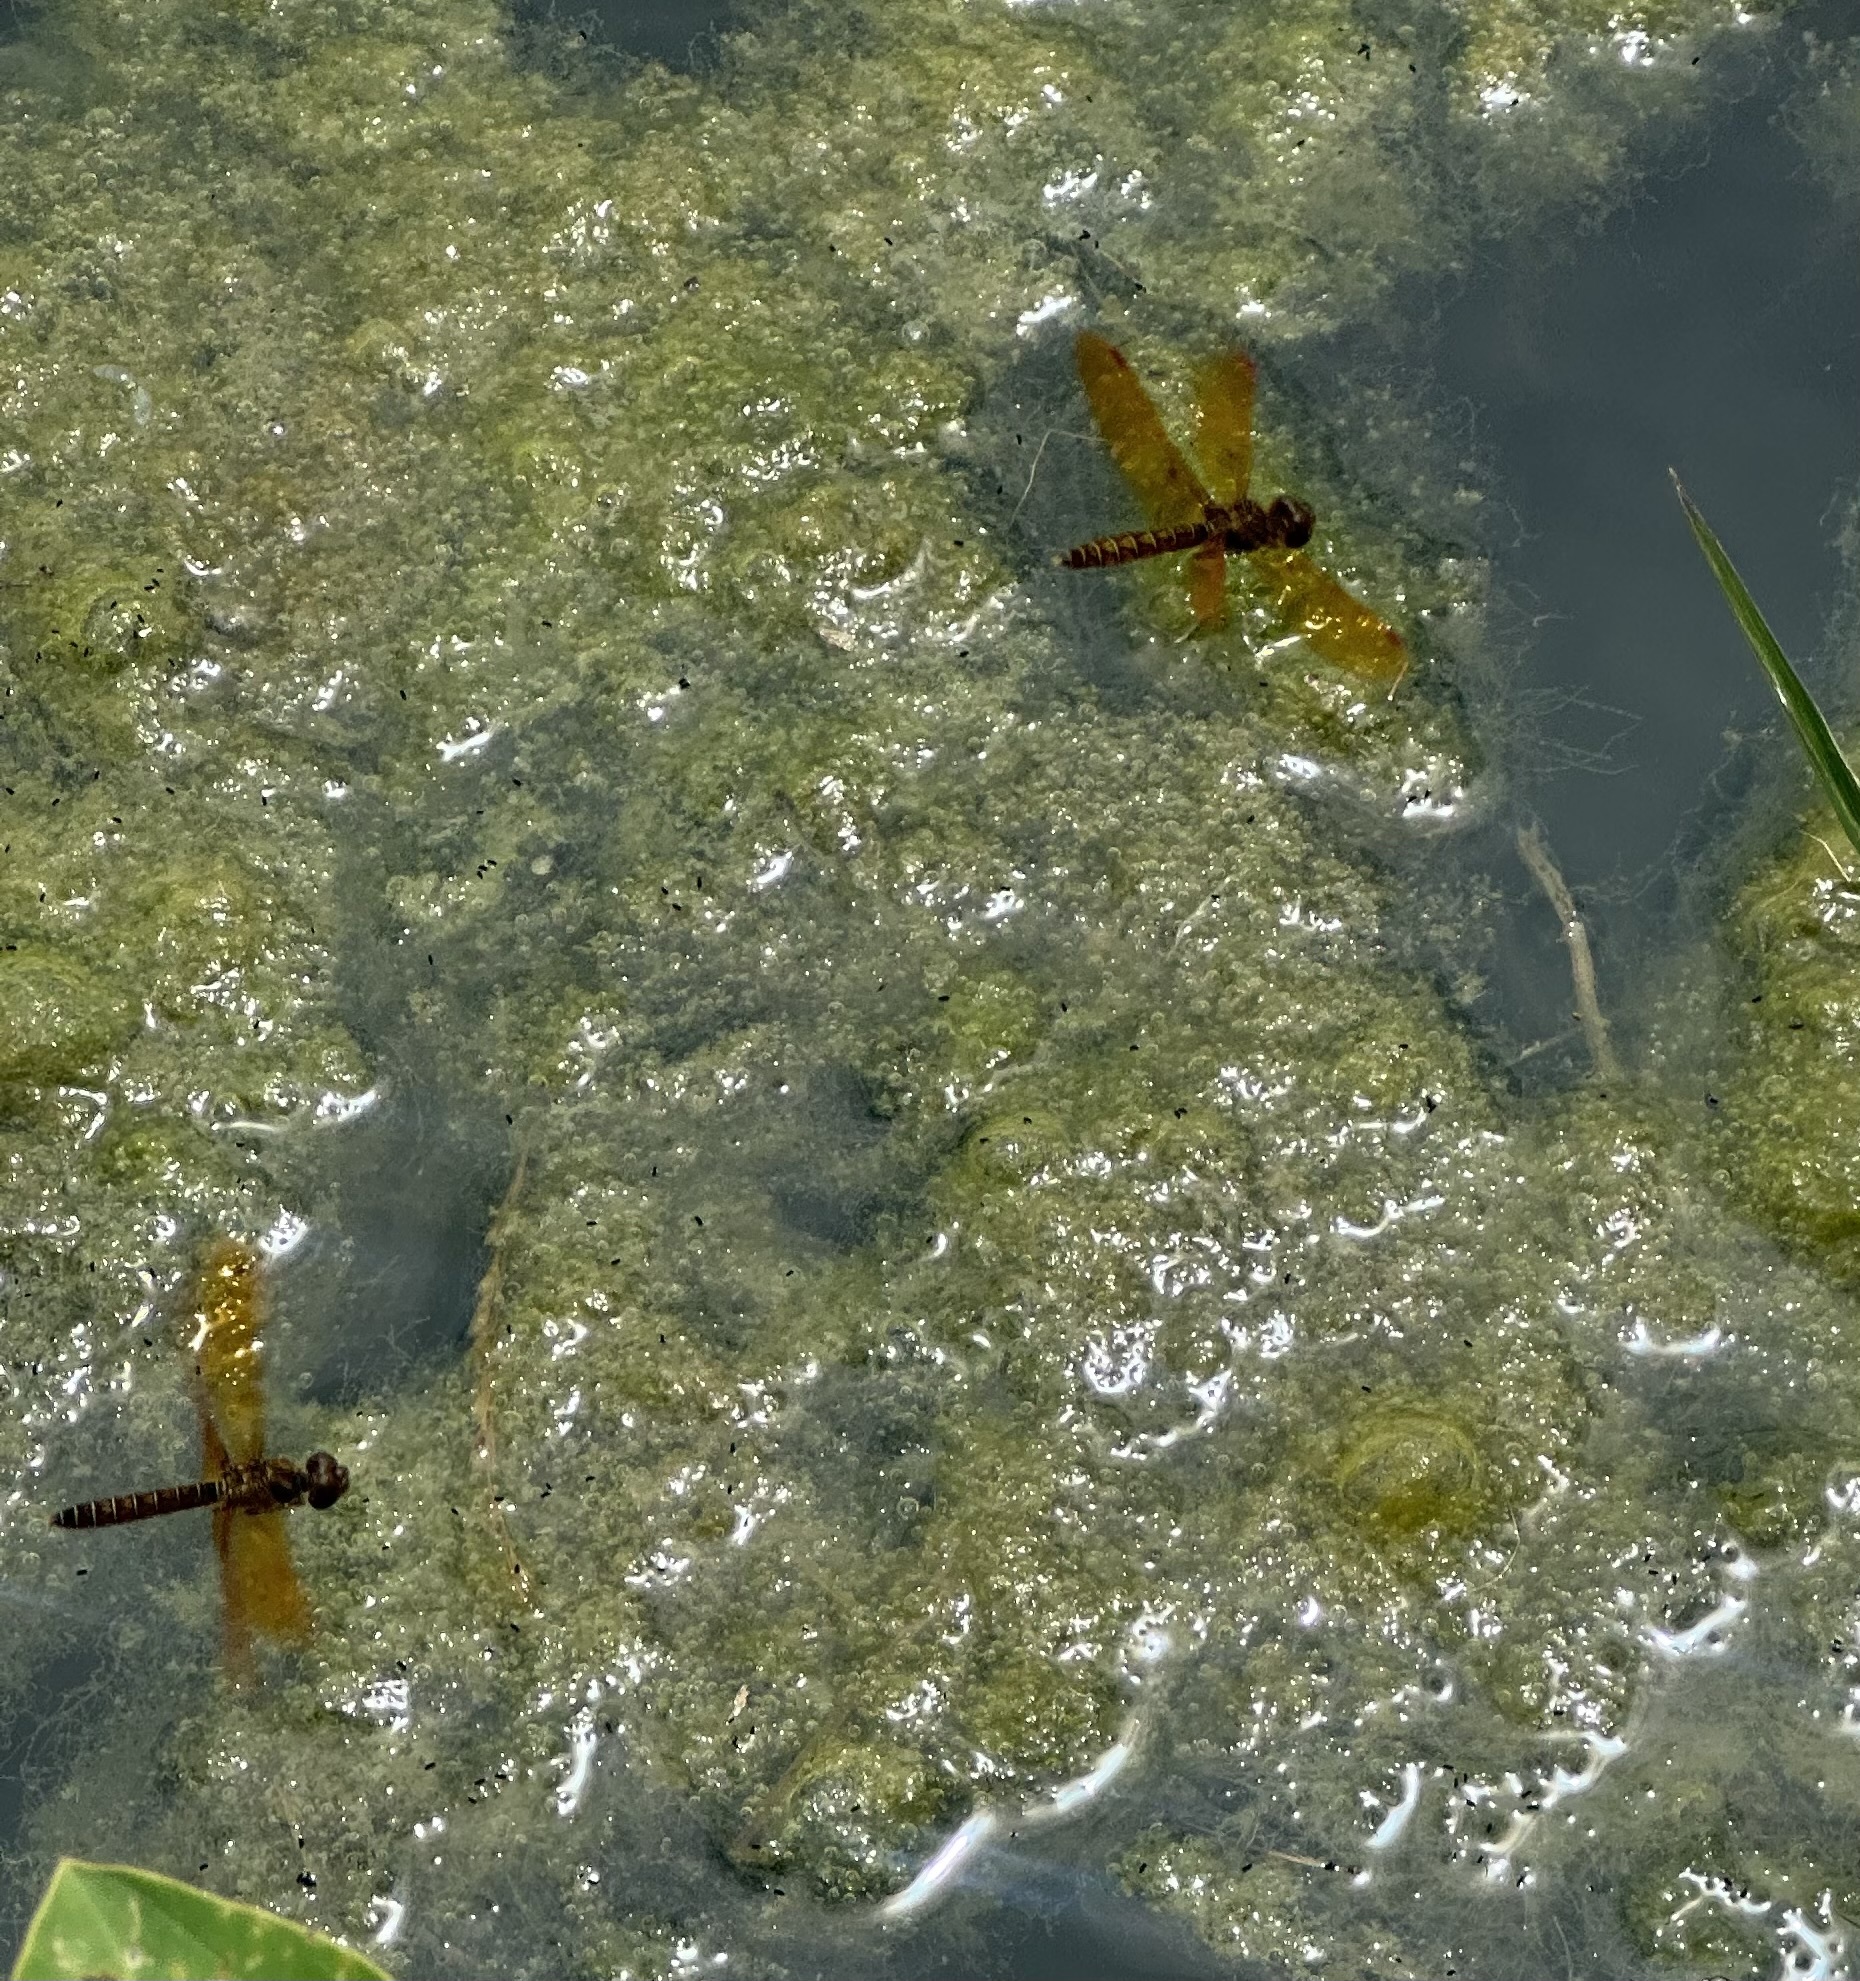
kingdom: Animalia
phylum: Arthropoda
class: Insecta
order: Odonata
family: Libellulidae
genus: Perithemis
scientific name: Perithemis tenera
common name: Eastern amberwing
